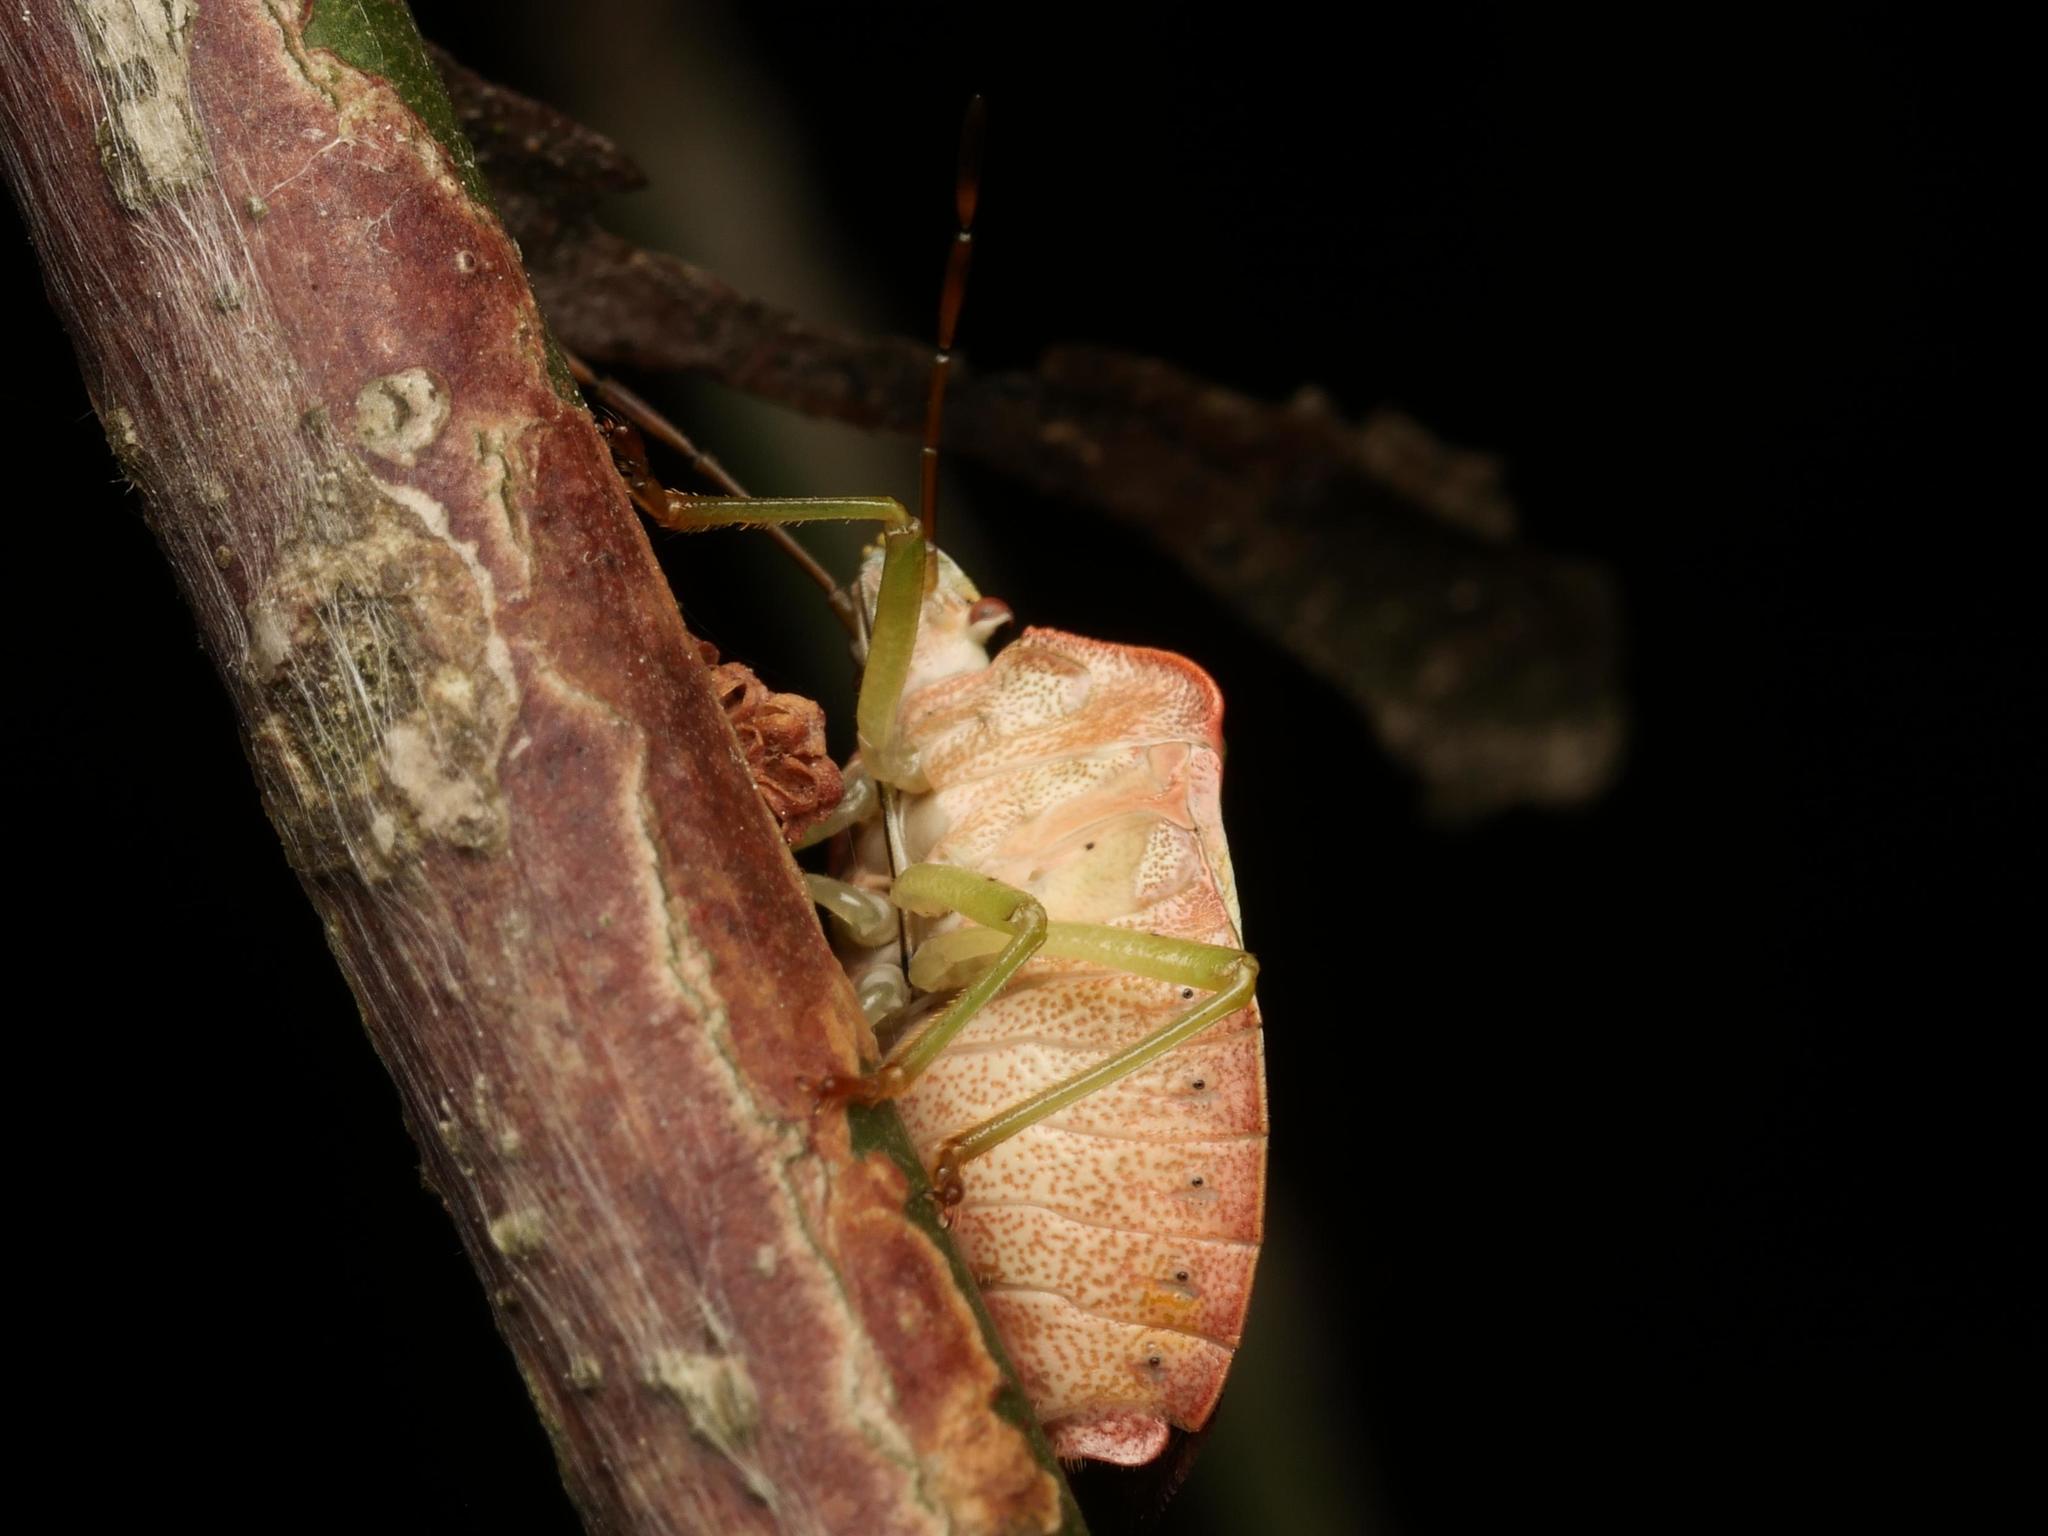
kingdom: Animalia
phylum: Arthropoda
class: Insecta
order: Hemiptera
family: Pentatomidae
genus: Palomena
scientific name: Palomena prasina
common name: Green shieldbug
